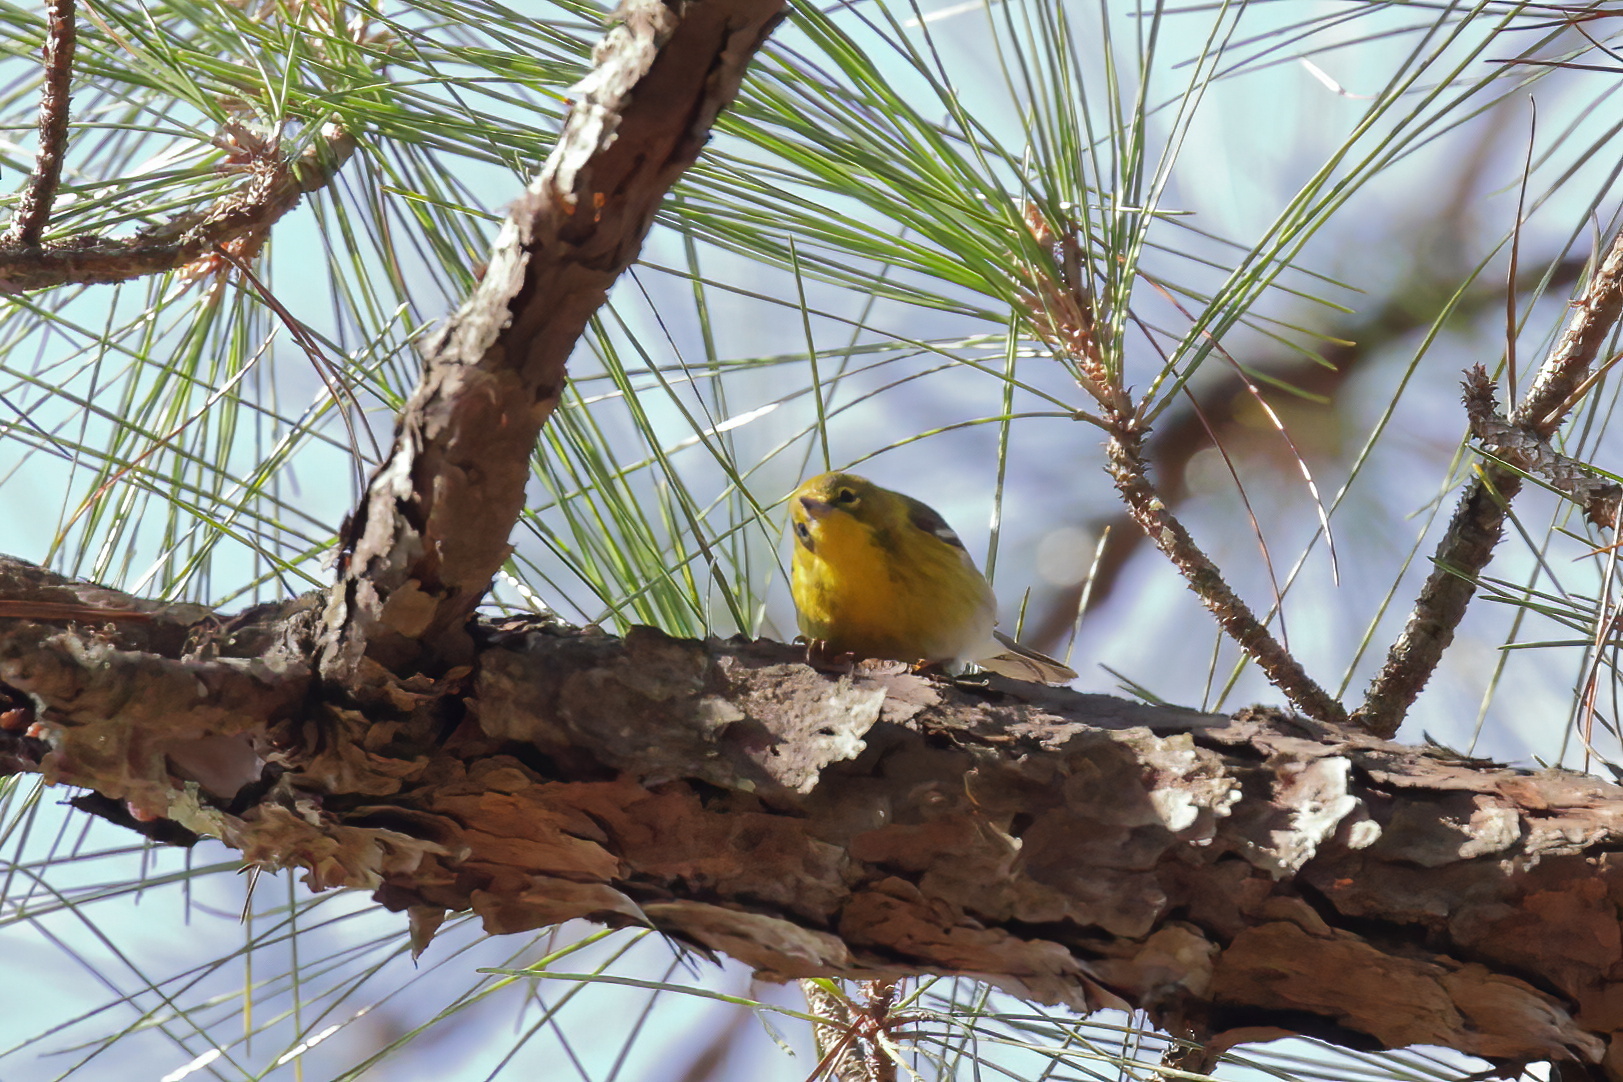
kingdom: Animalia
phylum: Chordata
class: Aves
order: Passeriformes
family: Parulidae
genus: Setophaga
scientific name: Setophaga pinus
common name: Pine warbler
